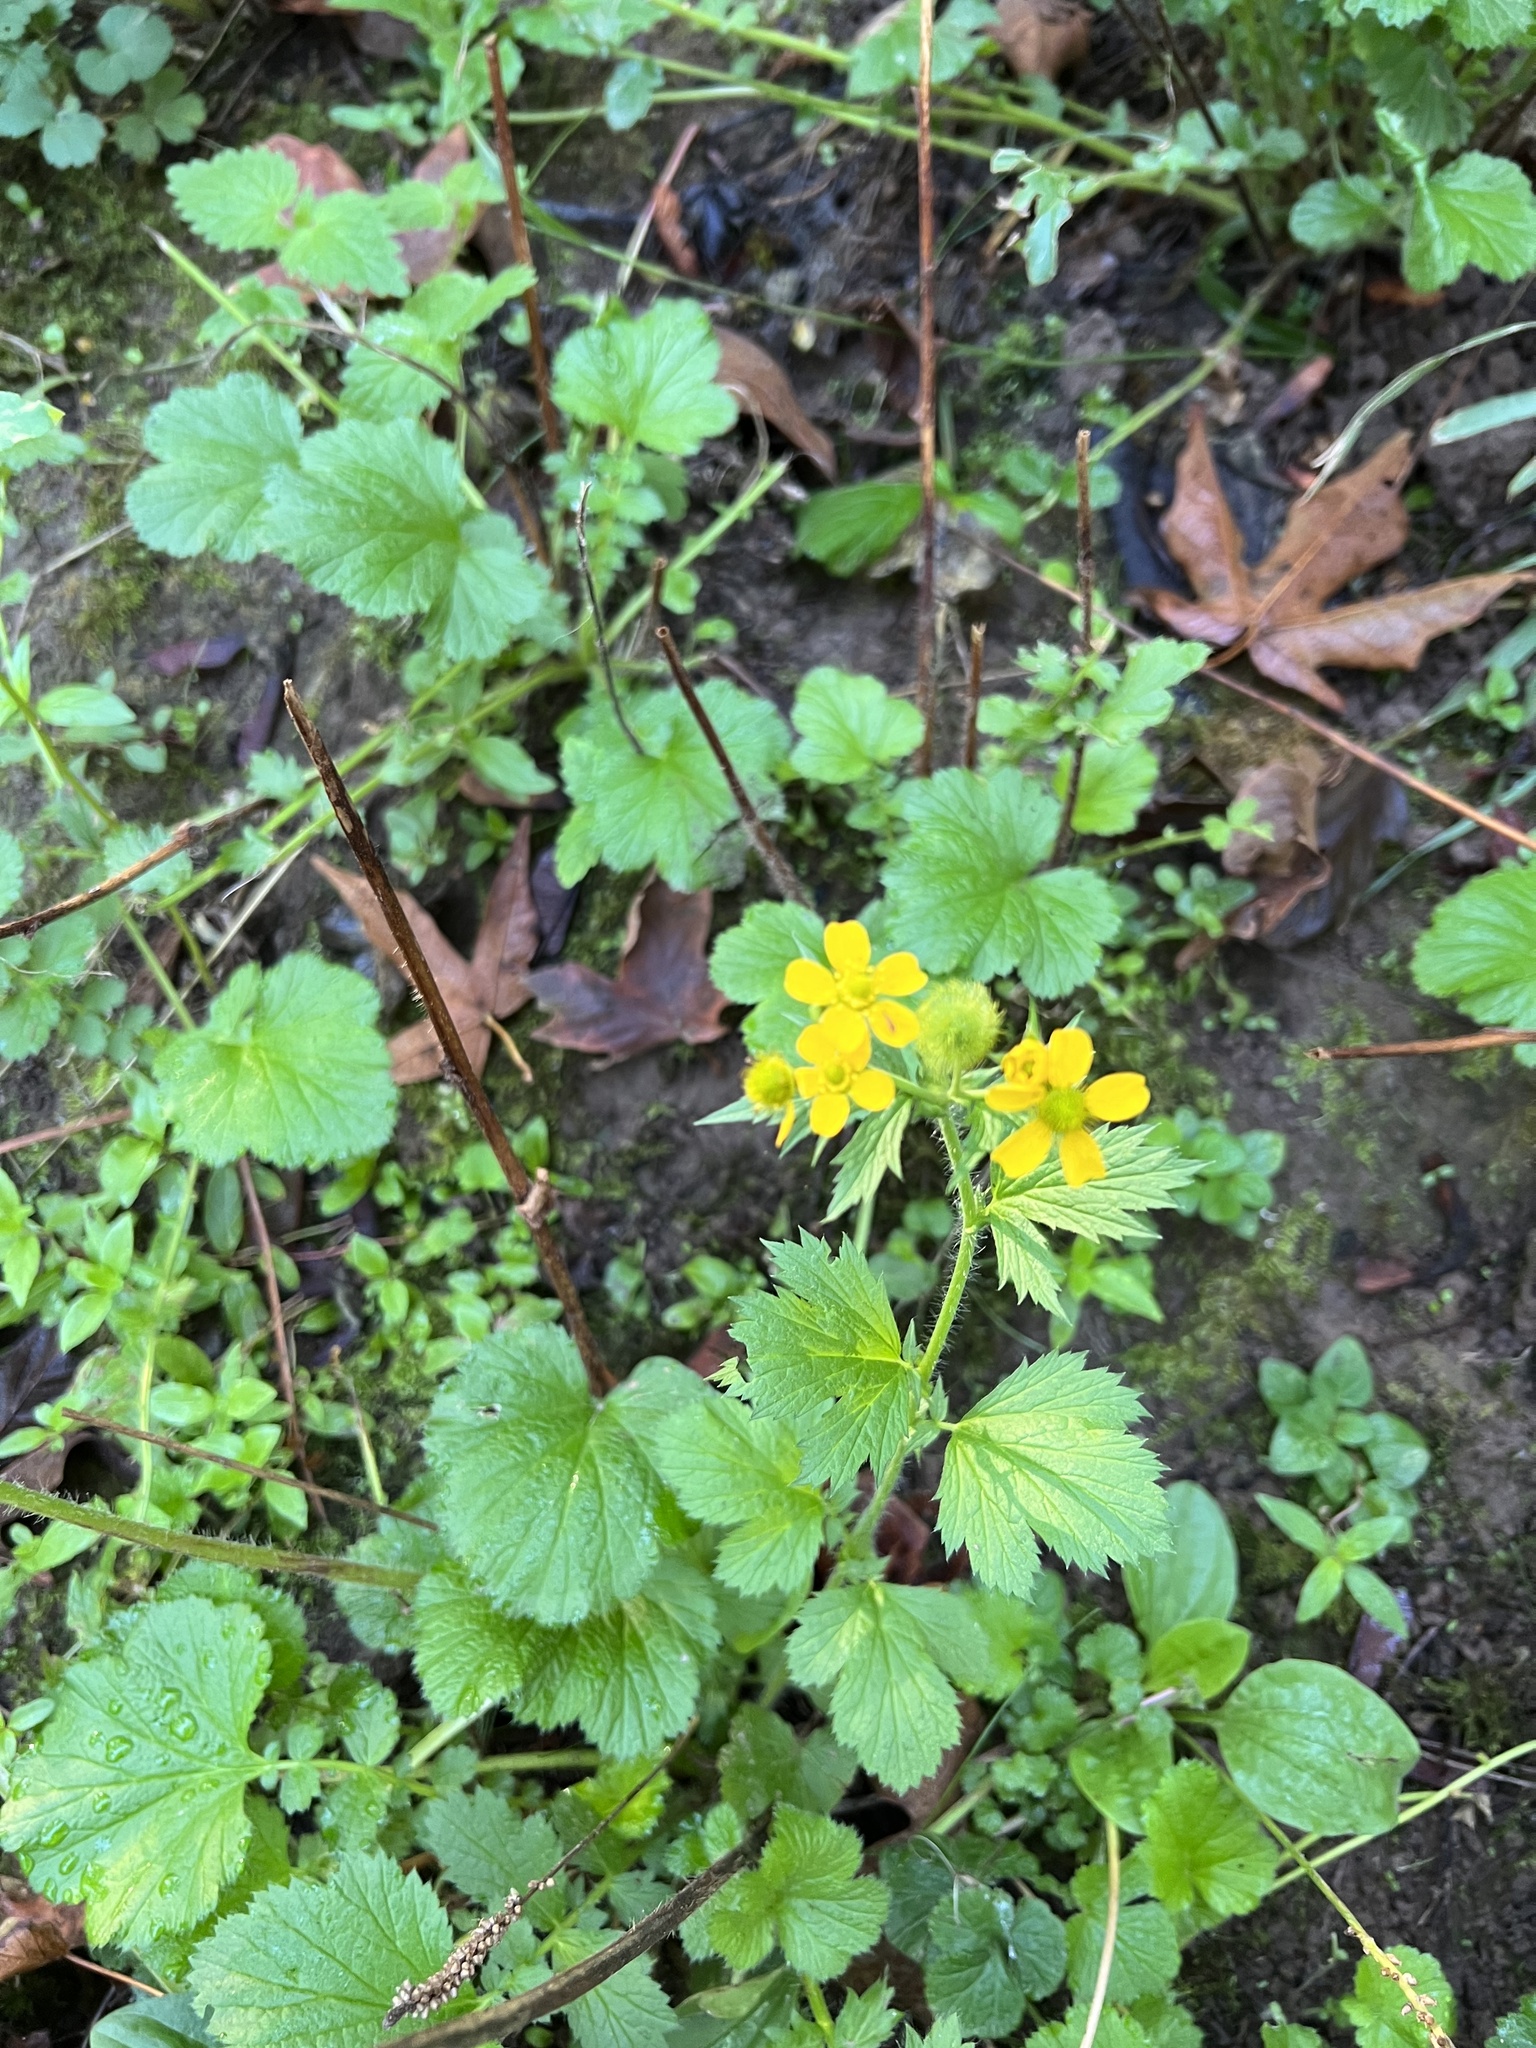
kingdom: Plantae
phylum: Tracheophyta
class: Magnoliopsida
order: Rosales
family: Rosaceae
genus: Geum
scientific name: Geum macrophyllum
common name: Large-leaved avens
